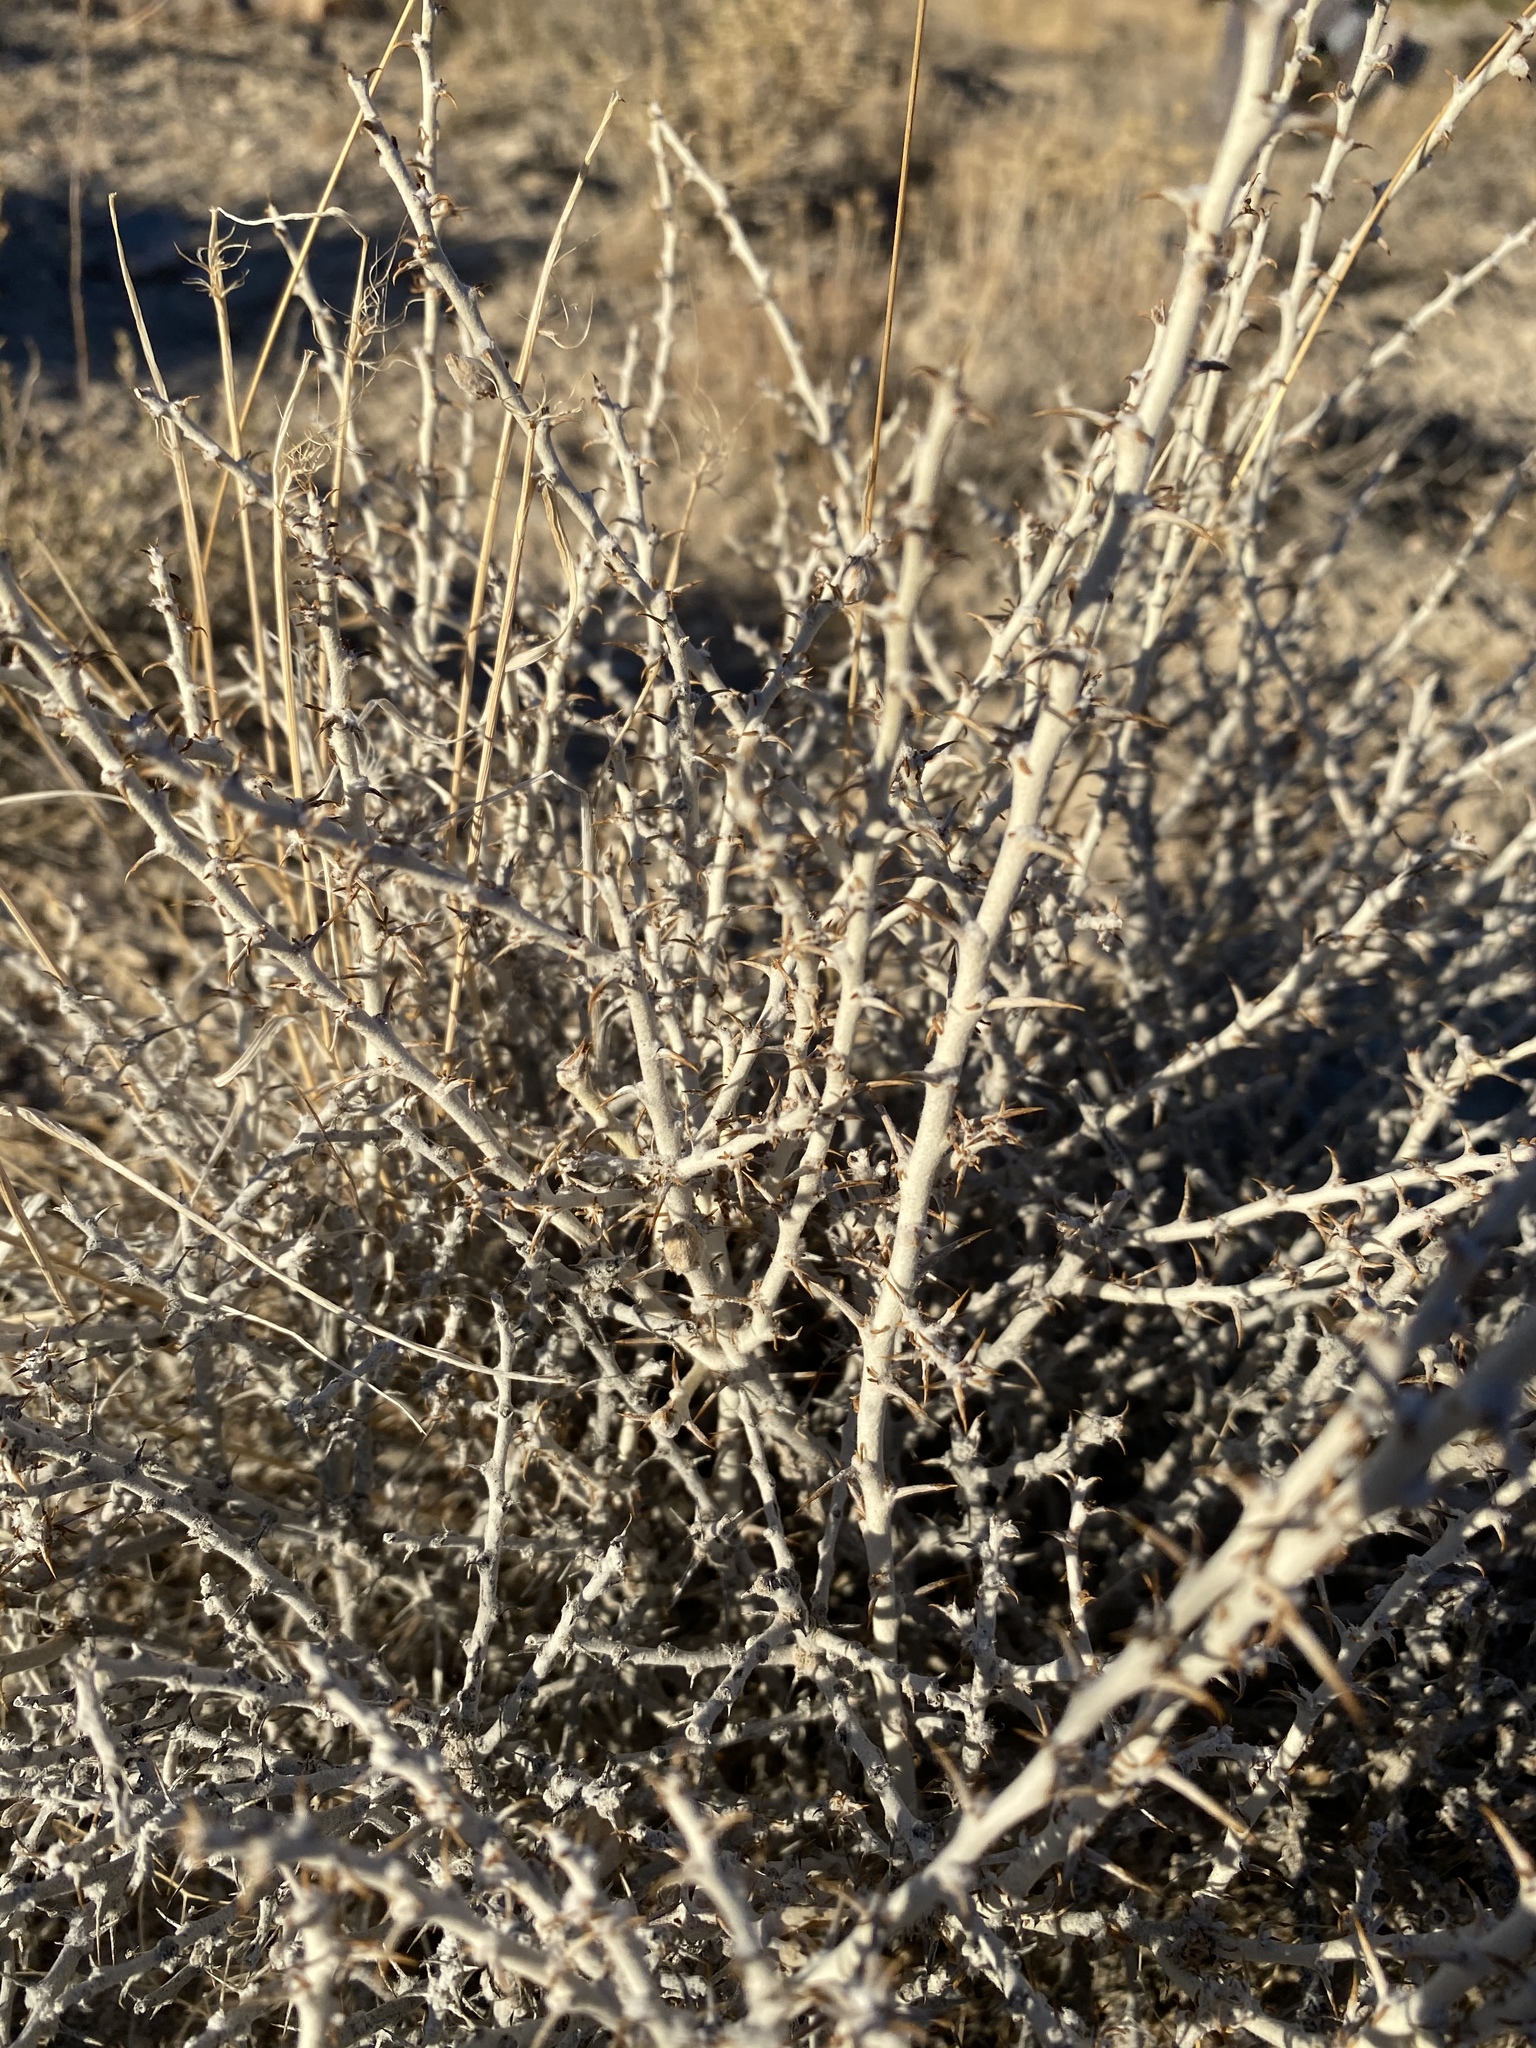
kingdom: Plantae
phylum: Tracheophyta
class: Magnoliopsida
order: Asterales
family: Asteraceae
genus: Tetradymia
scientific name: Tetradymia spinosa
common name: Thorny horsebrush
